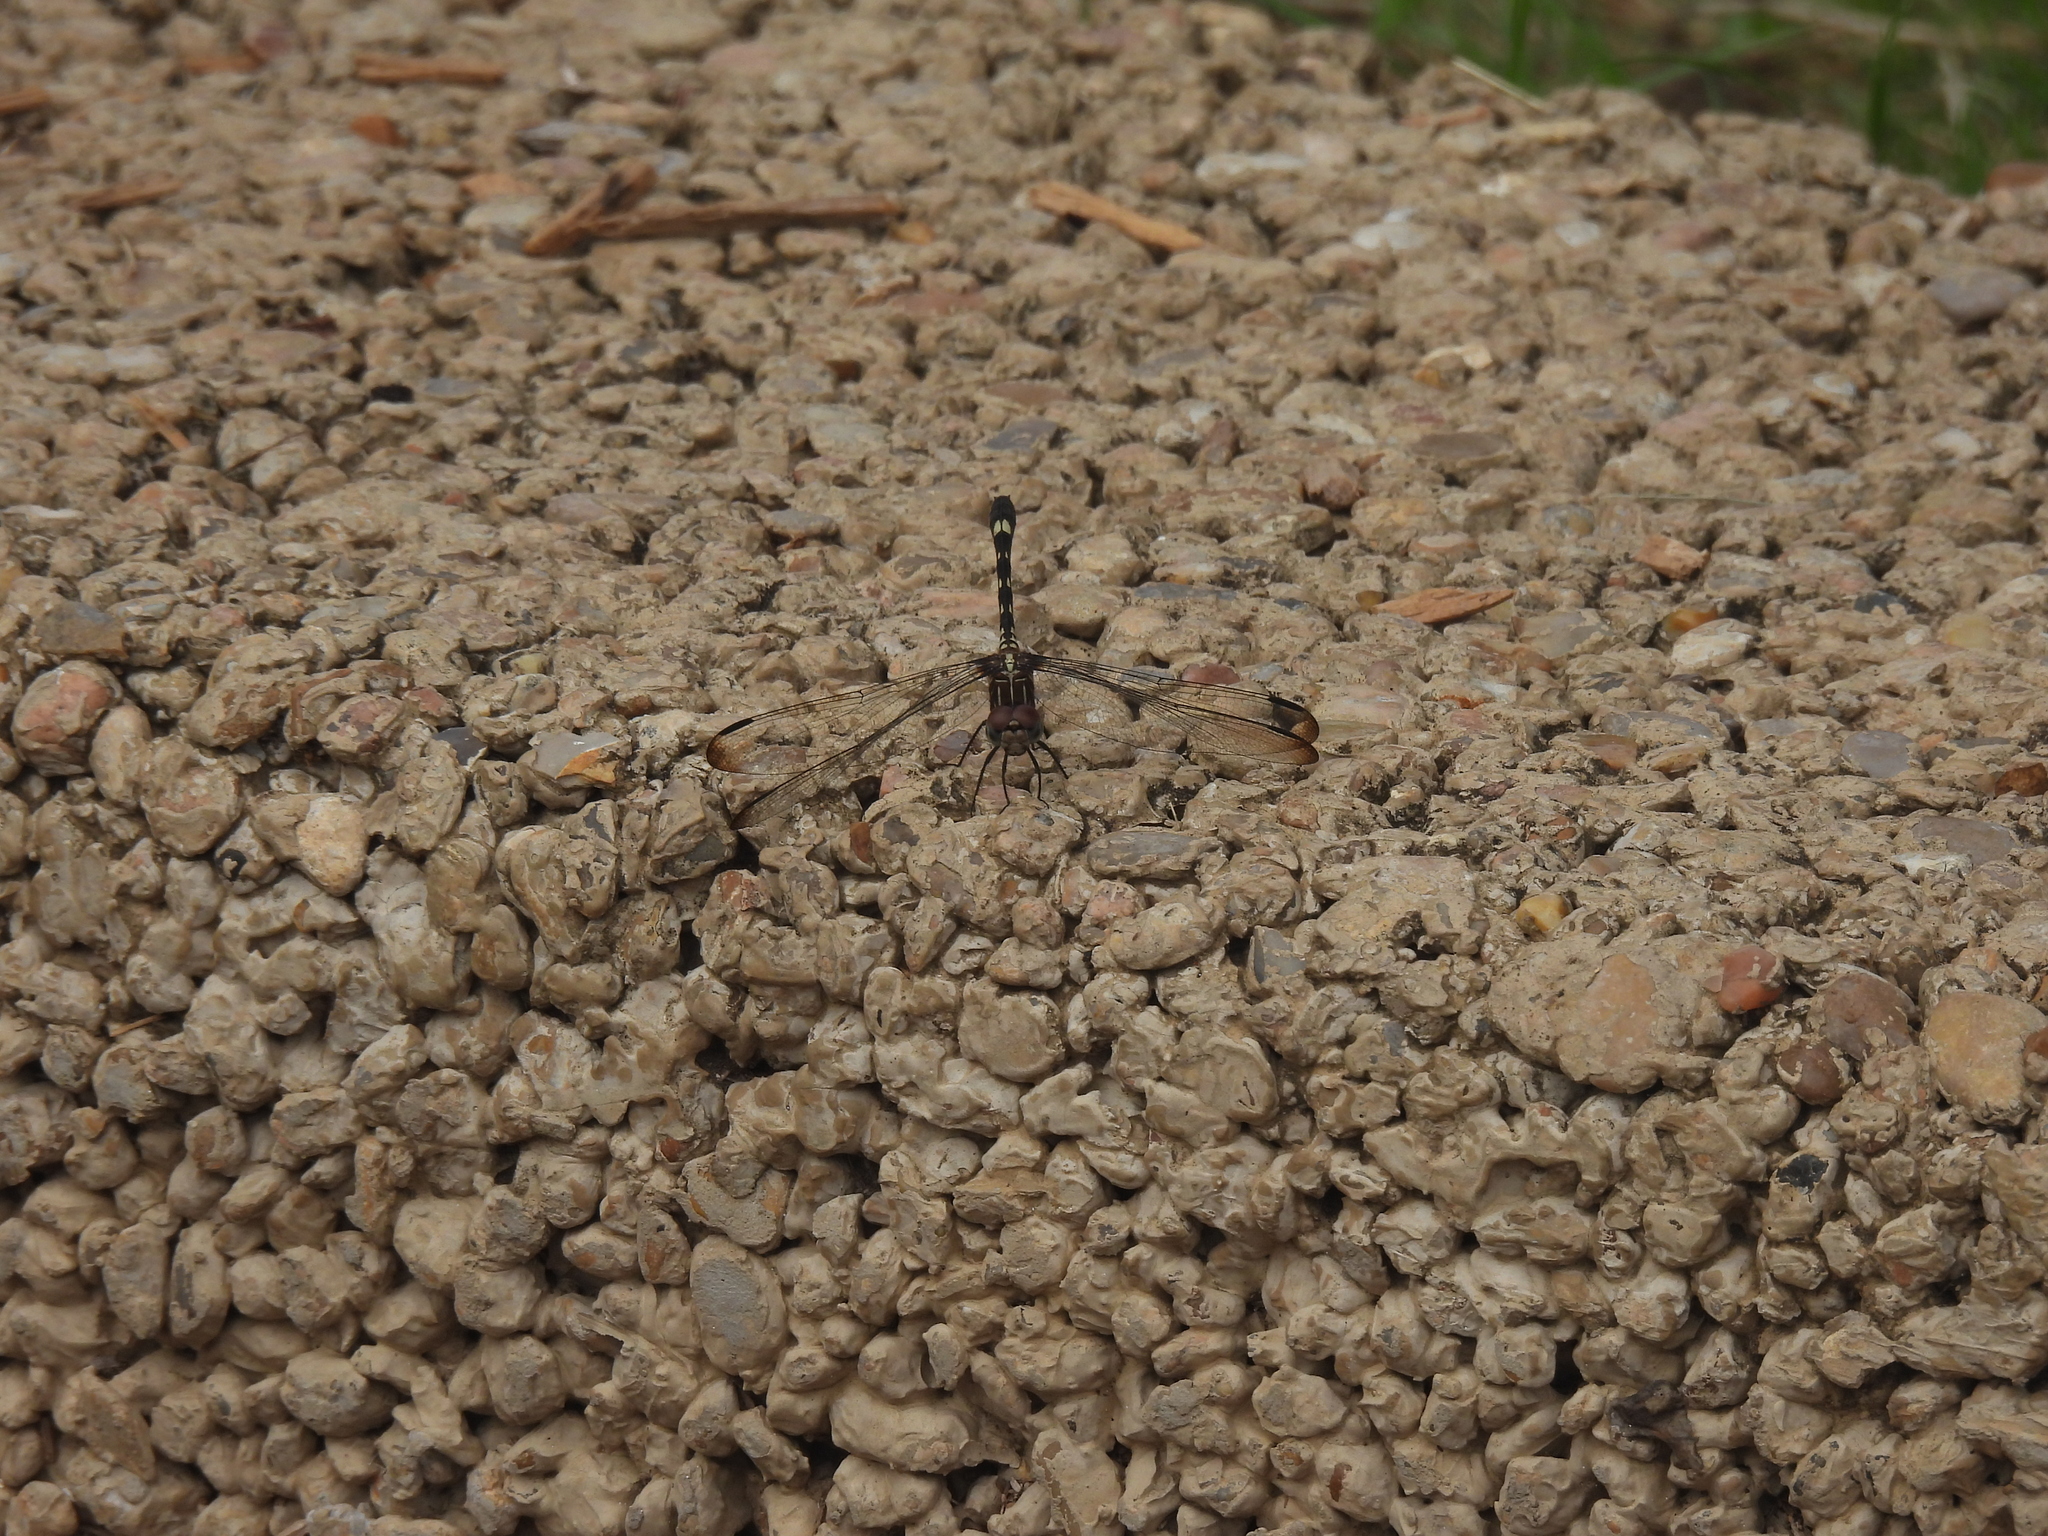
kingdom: Animalia
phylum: Arthropoda
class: Insecta
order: Odonata
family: Libellulidae
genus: Dythemis
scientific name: Dythemis velox
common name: Swift setwing
